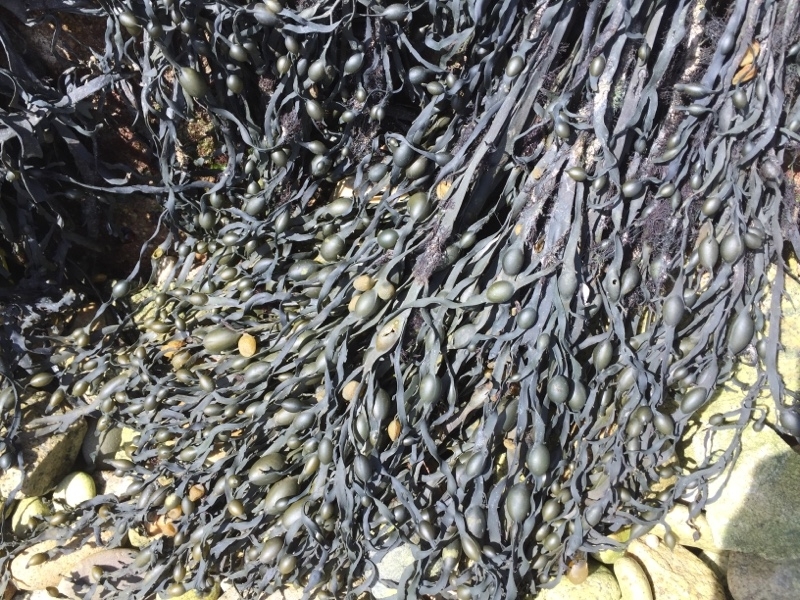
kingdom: Chromista
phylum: Ochrophyta
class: Phaeophyceae
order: Fucales
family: Fucaceae
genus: Ascophyllum
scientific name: Ascophyllum nodosum
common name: Knotted wrack
